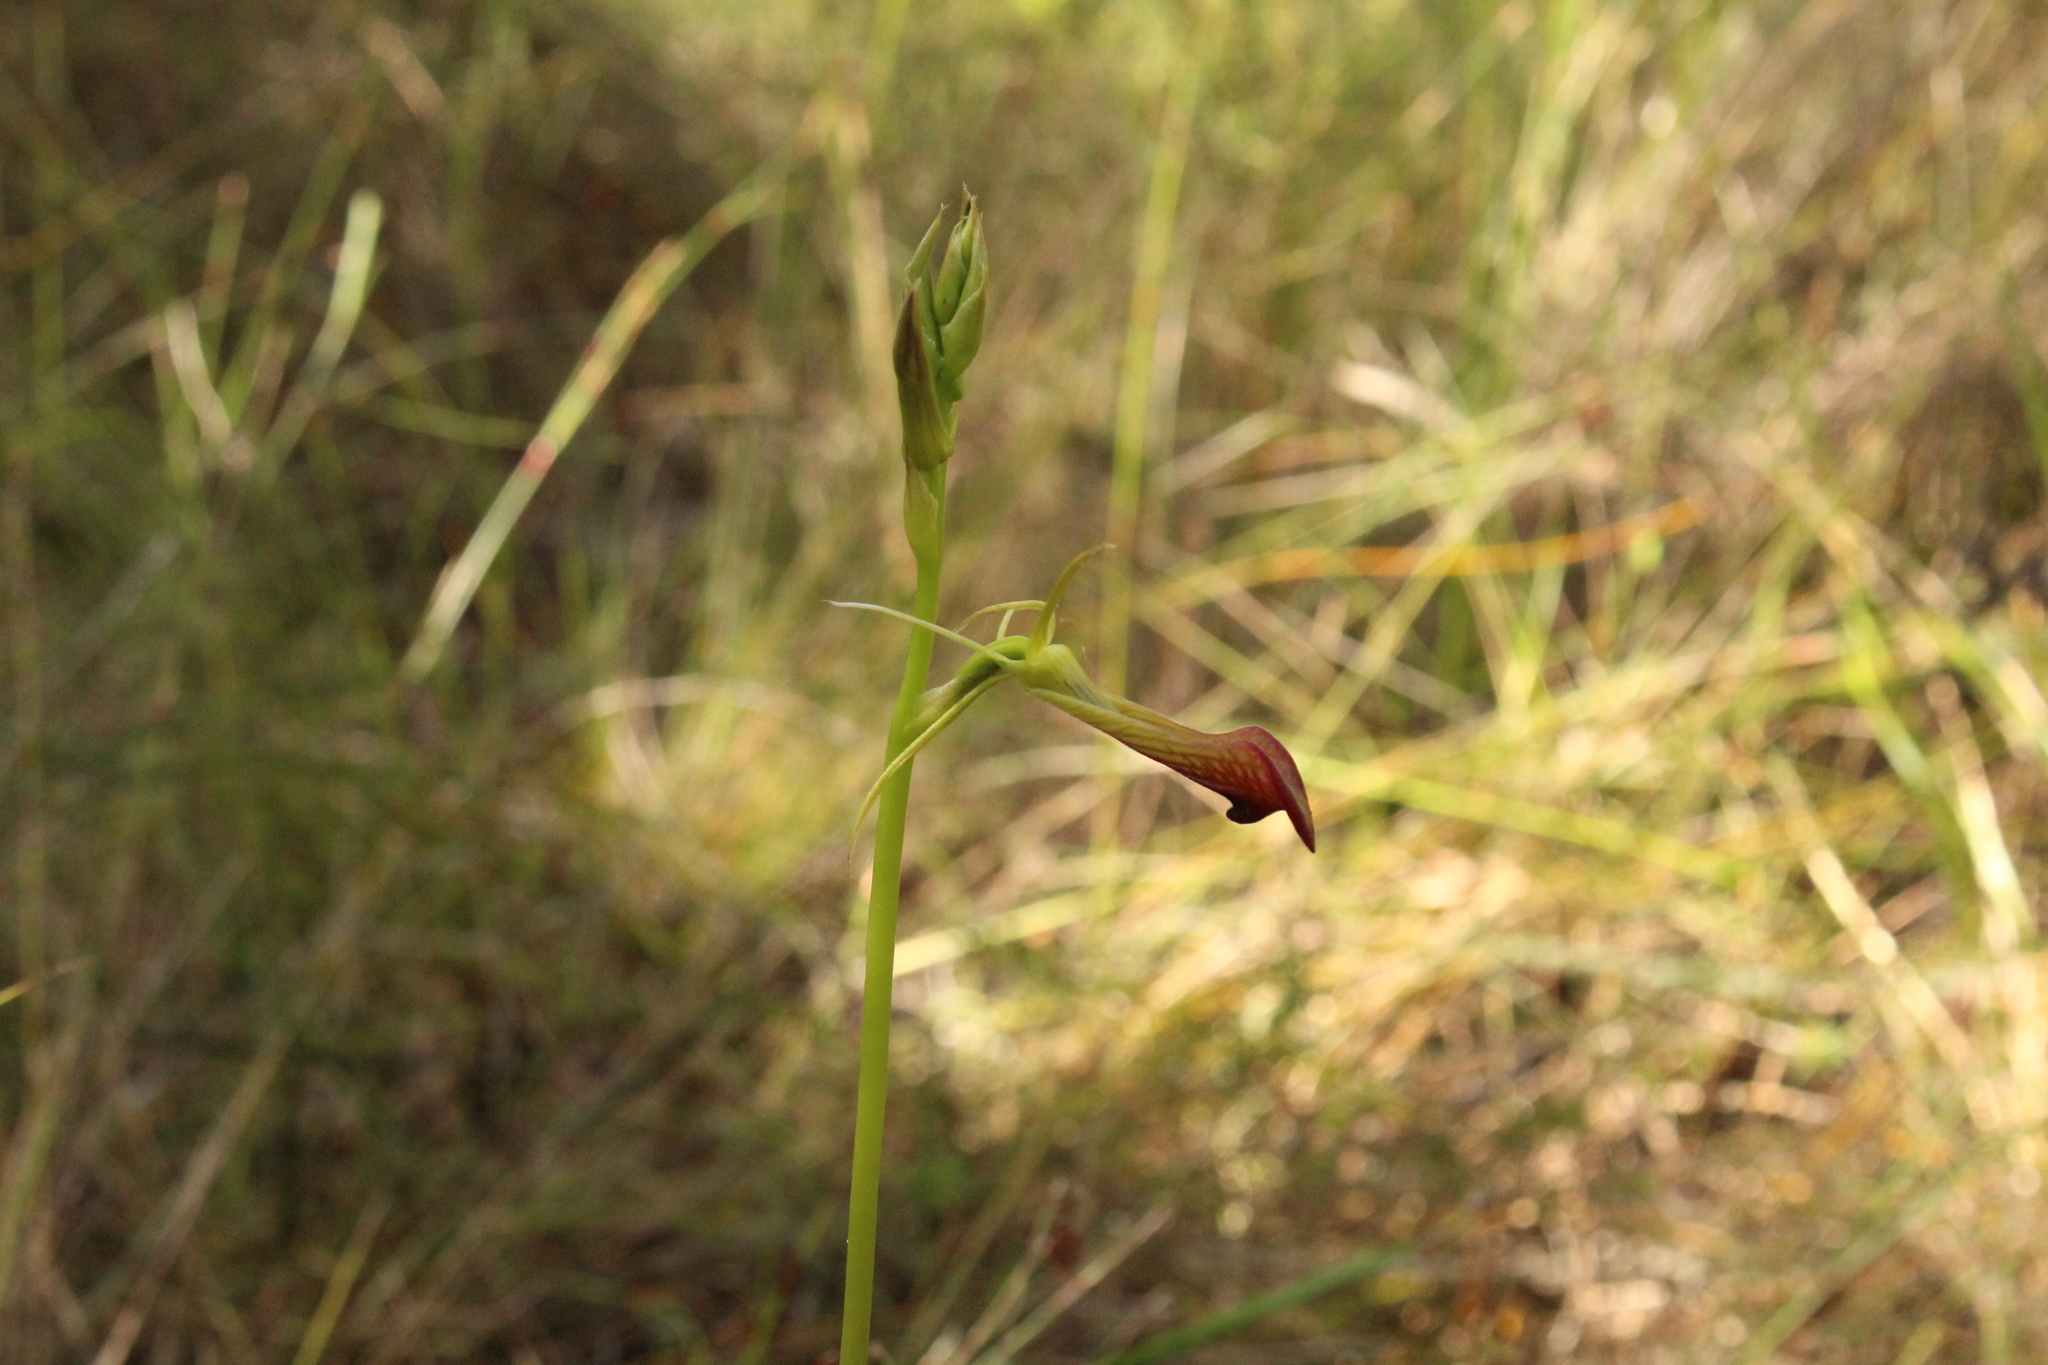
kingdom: Plantae
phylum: Tracheophyta
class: Liliopsida
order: Asparagales
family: Orchidaceae
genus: Cryptostylis
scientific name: Cryptostylis ovata
